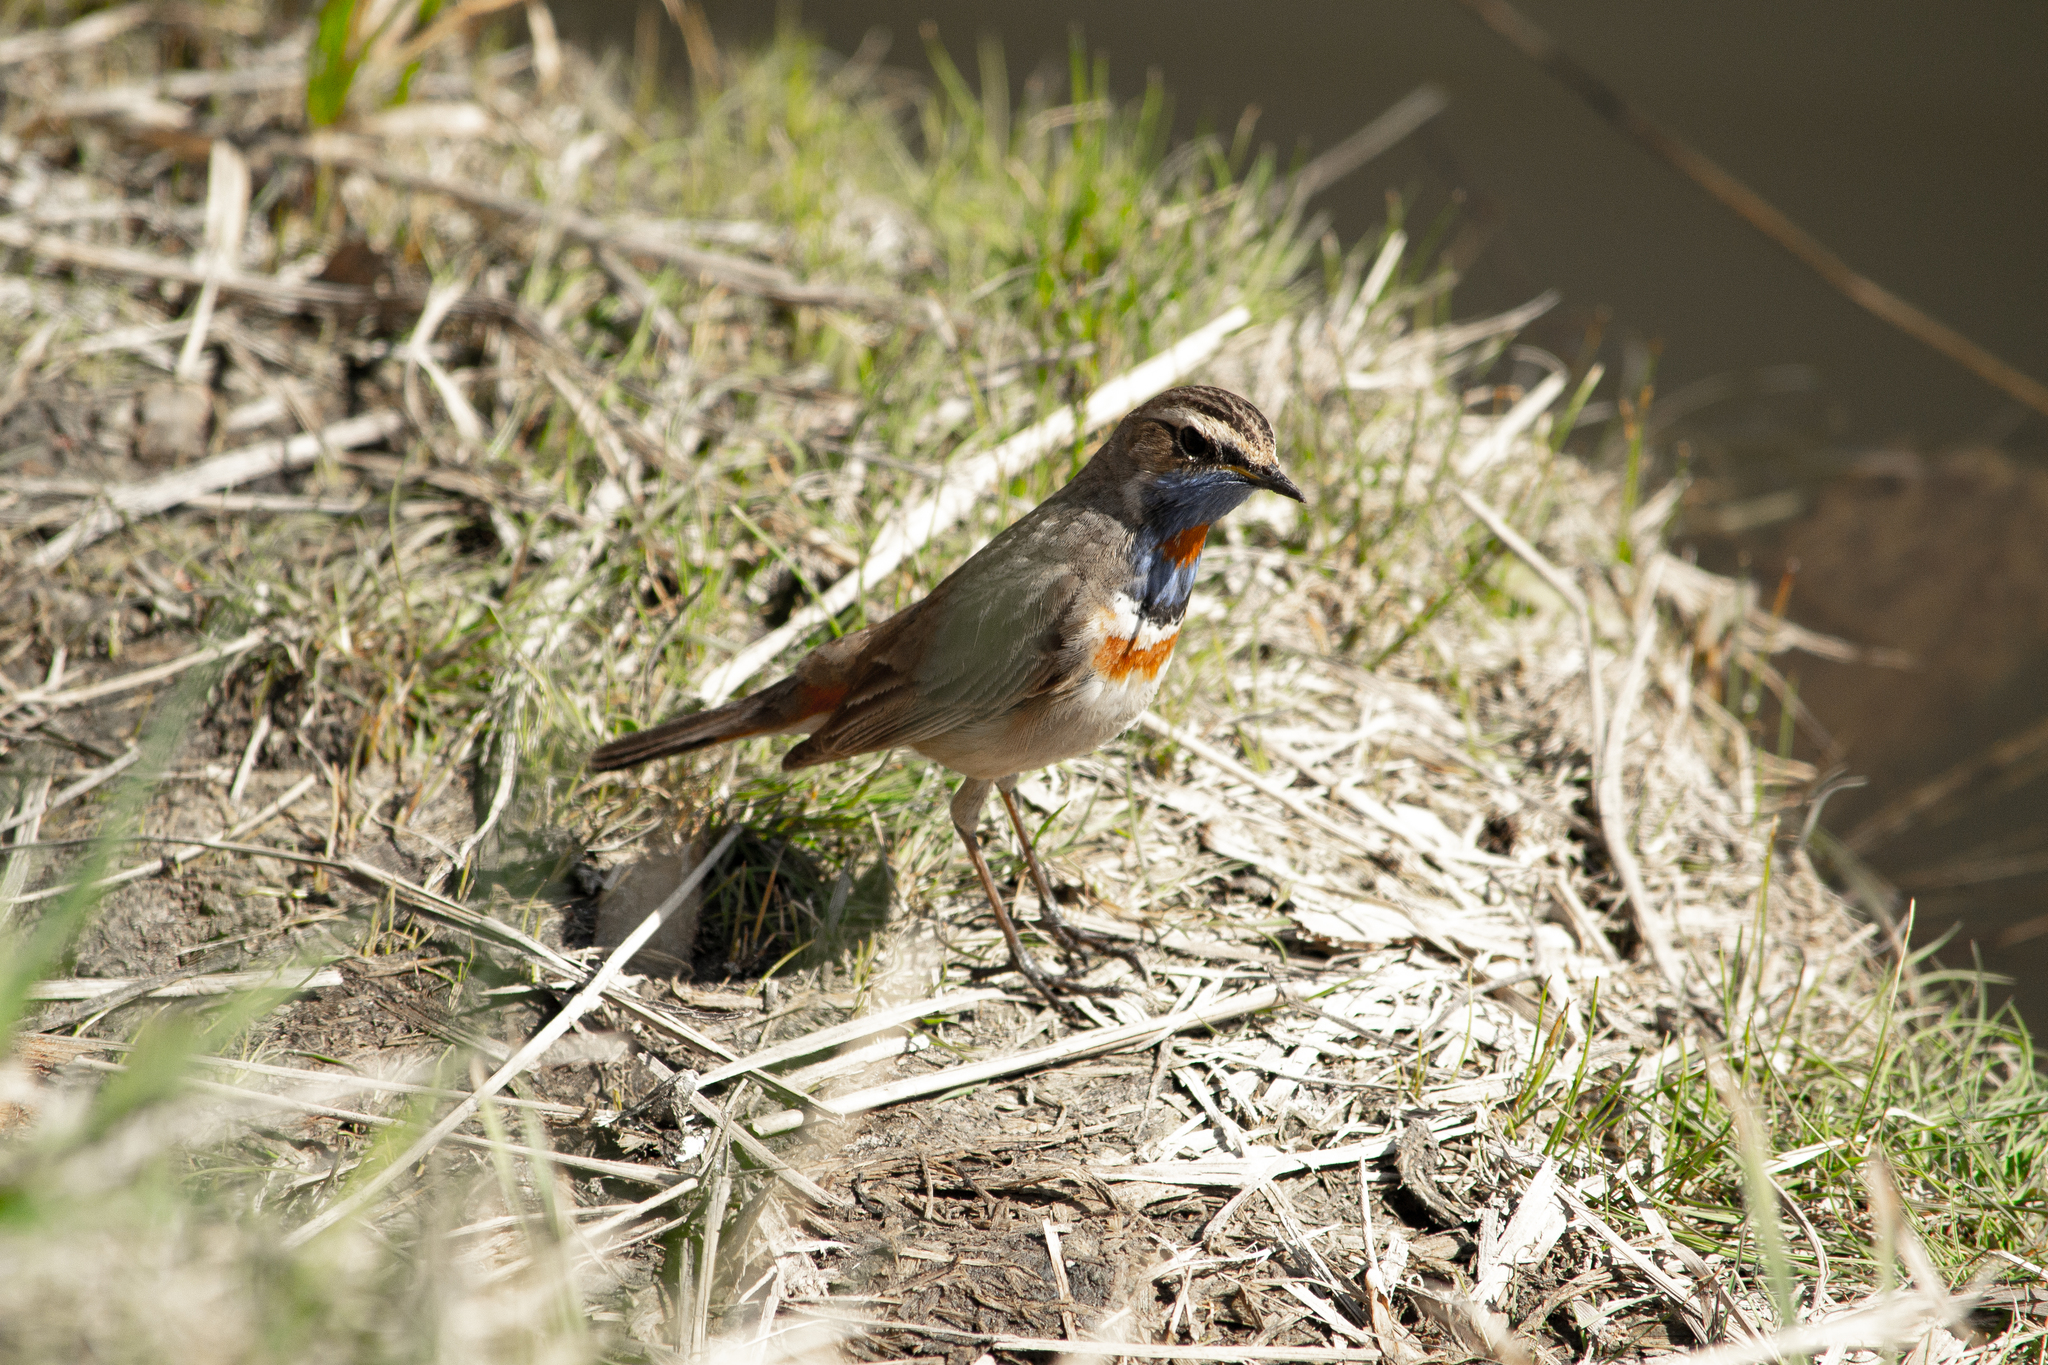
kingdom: Animalia
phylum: Chordata
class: Aves
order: Passeriformes
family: Muscicapidae
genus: Luscinia
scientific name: Luscinia svecica
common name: Bluethroat
